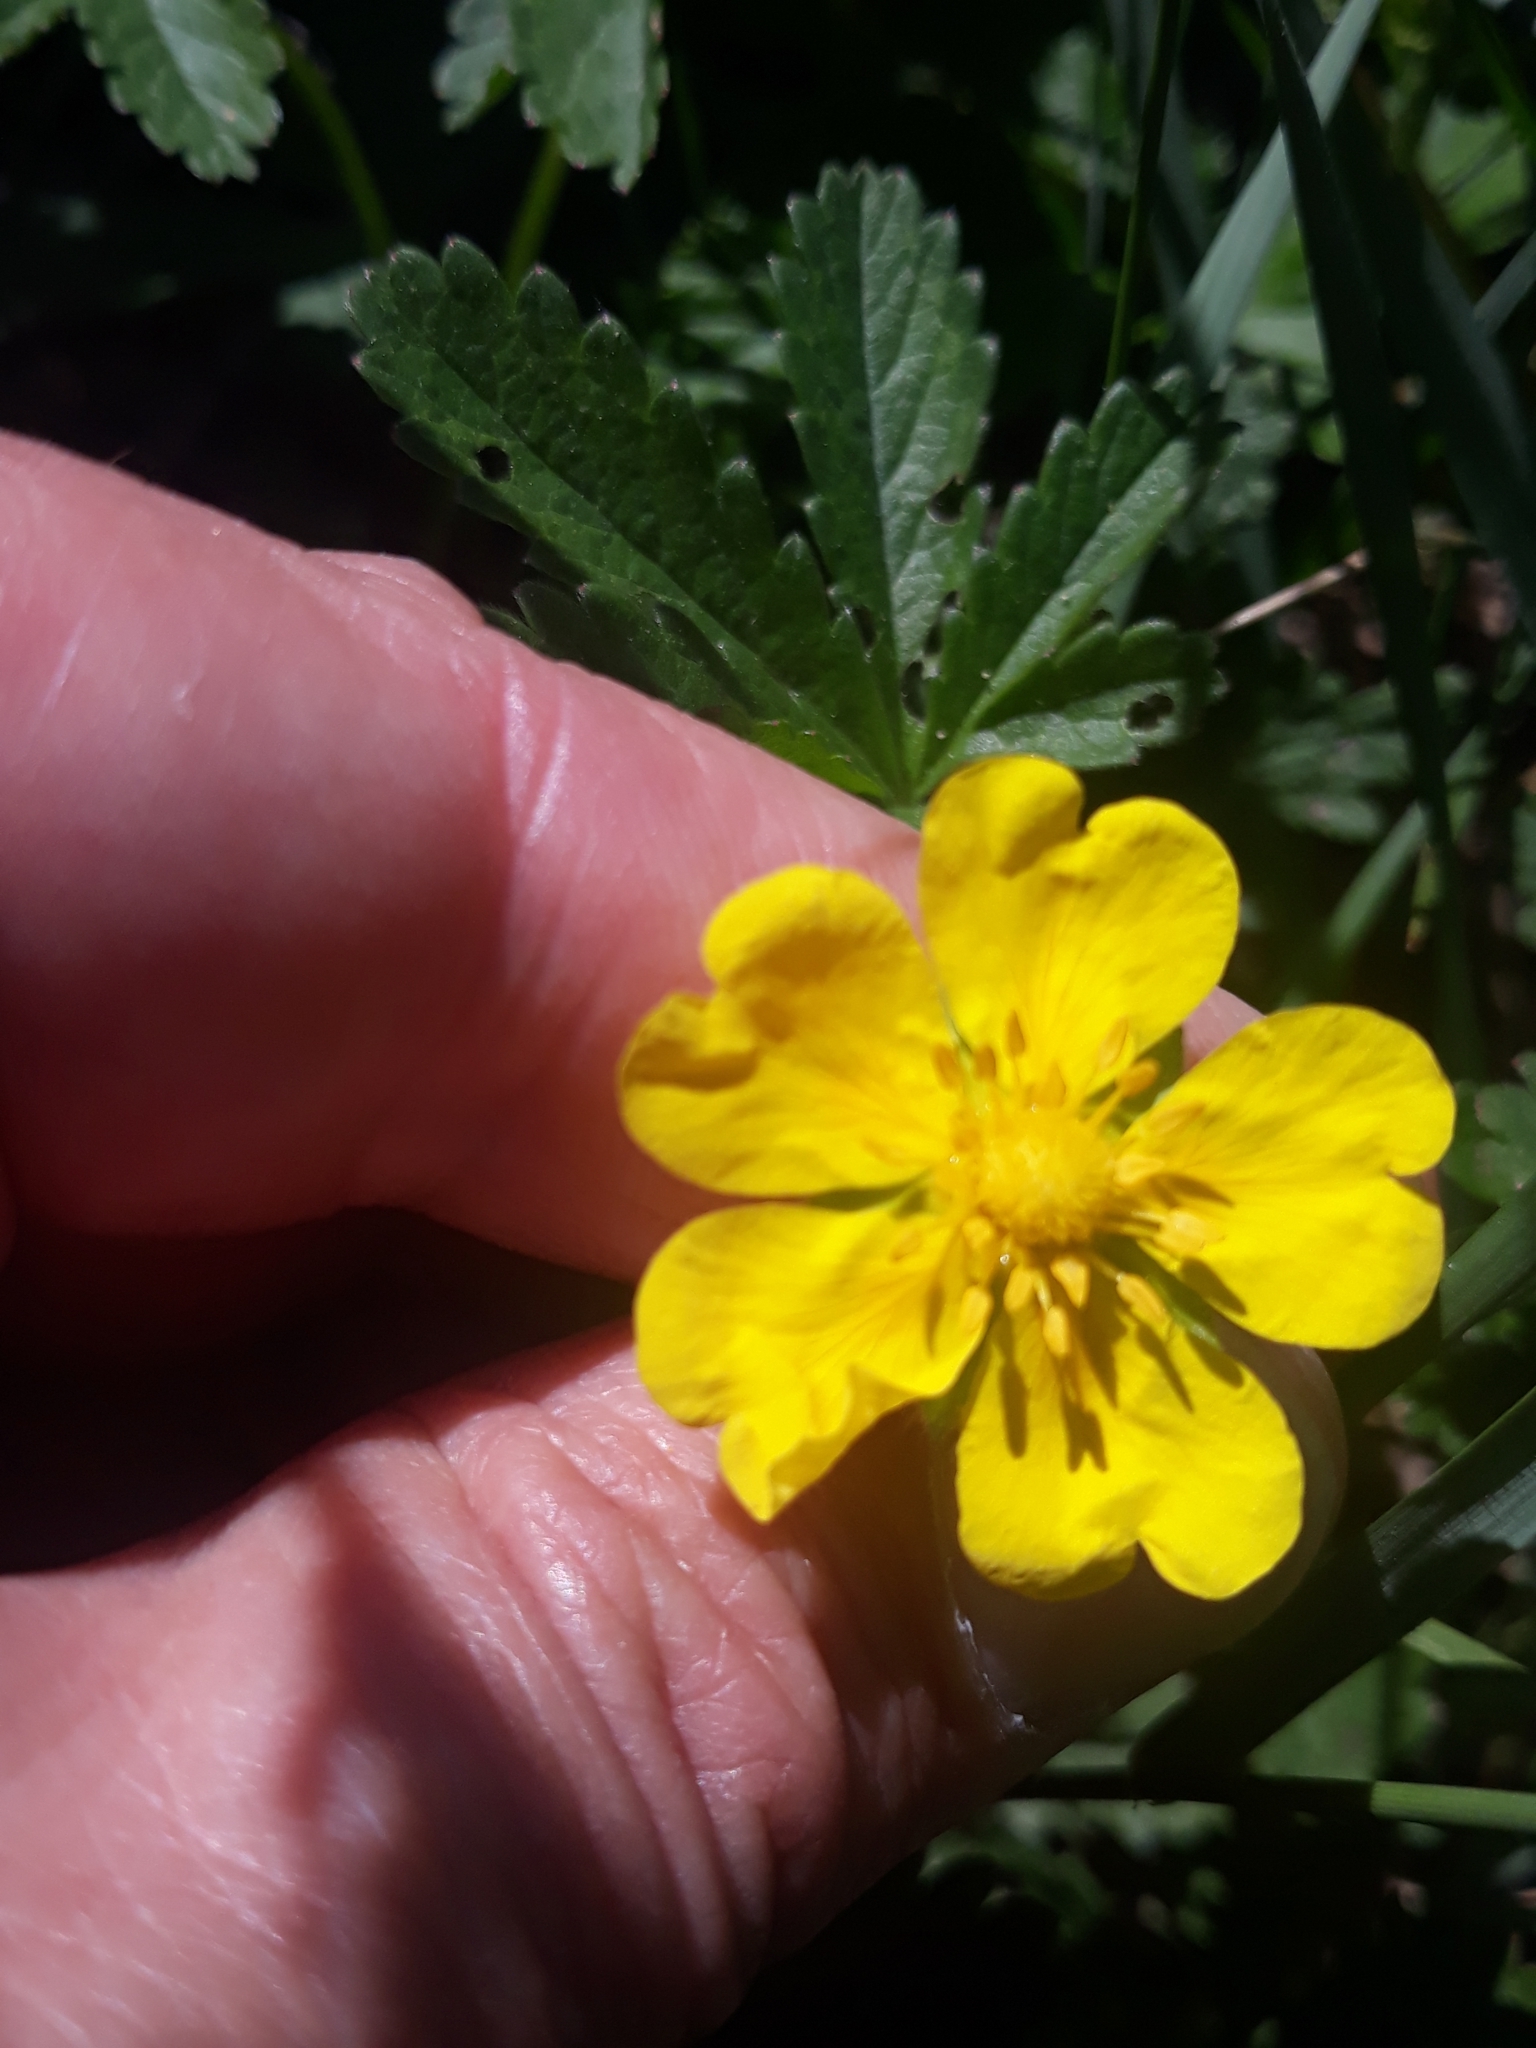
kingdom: Plantae
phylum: Tracheophyta
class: Magnoliopsida
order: Rosales
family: Rosaceae
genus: Potentilla
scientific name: Potentilla reptans
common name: Creeping cinquefoil
